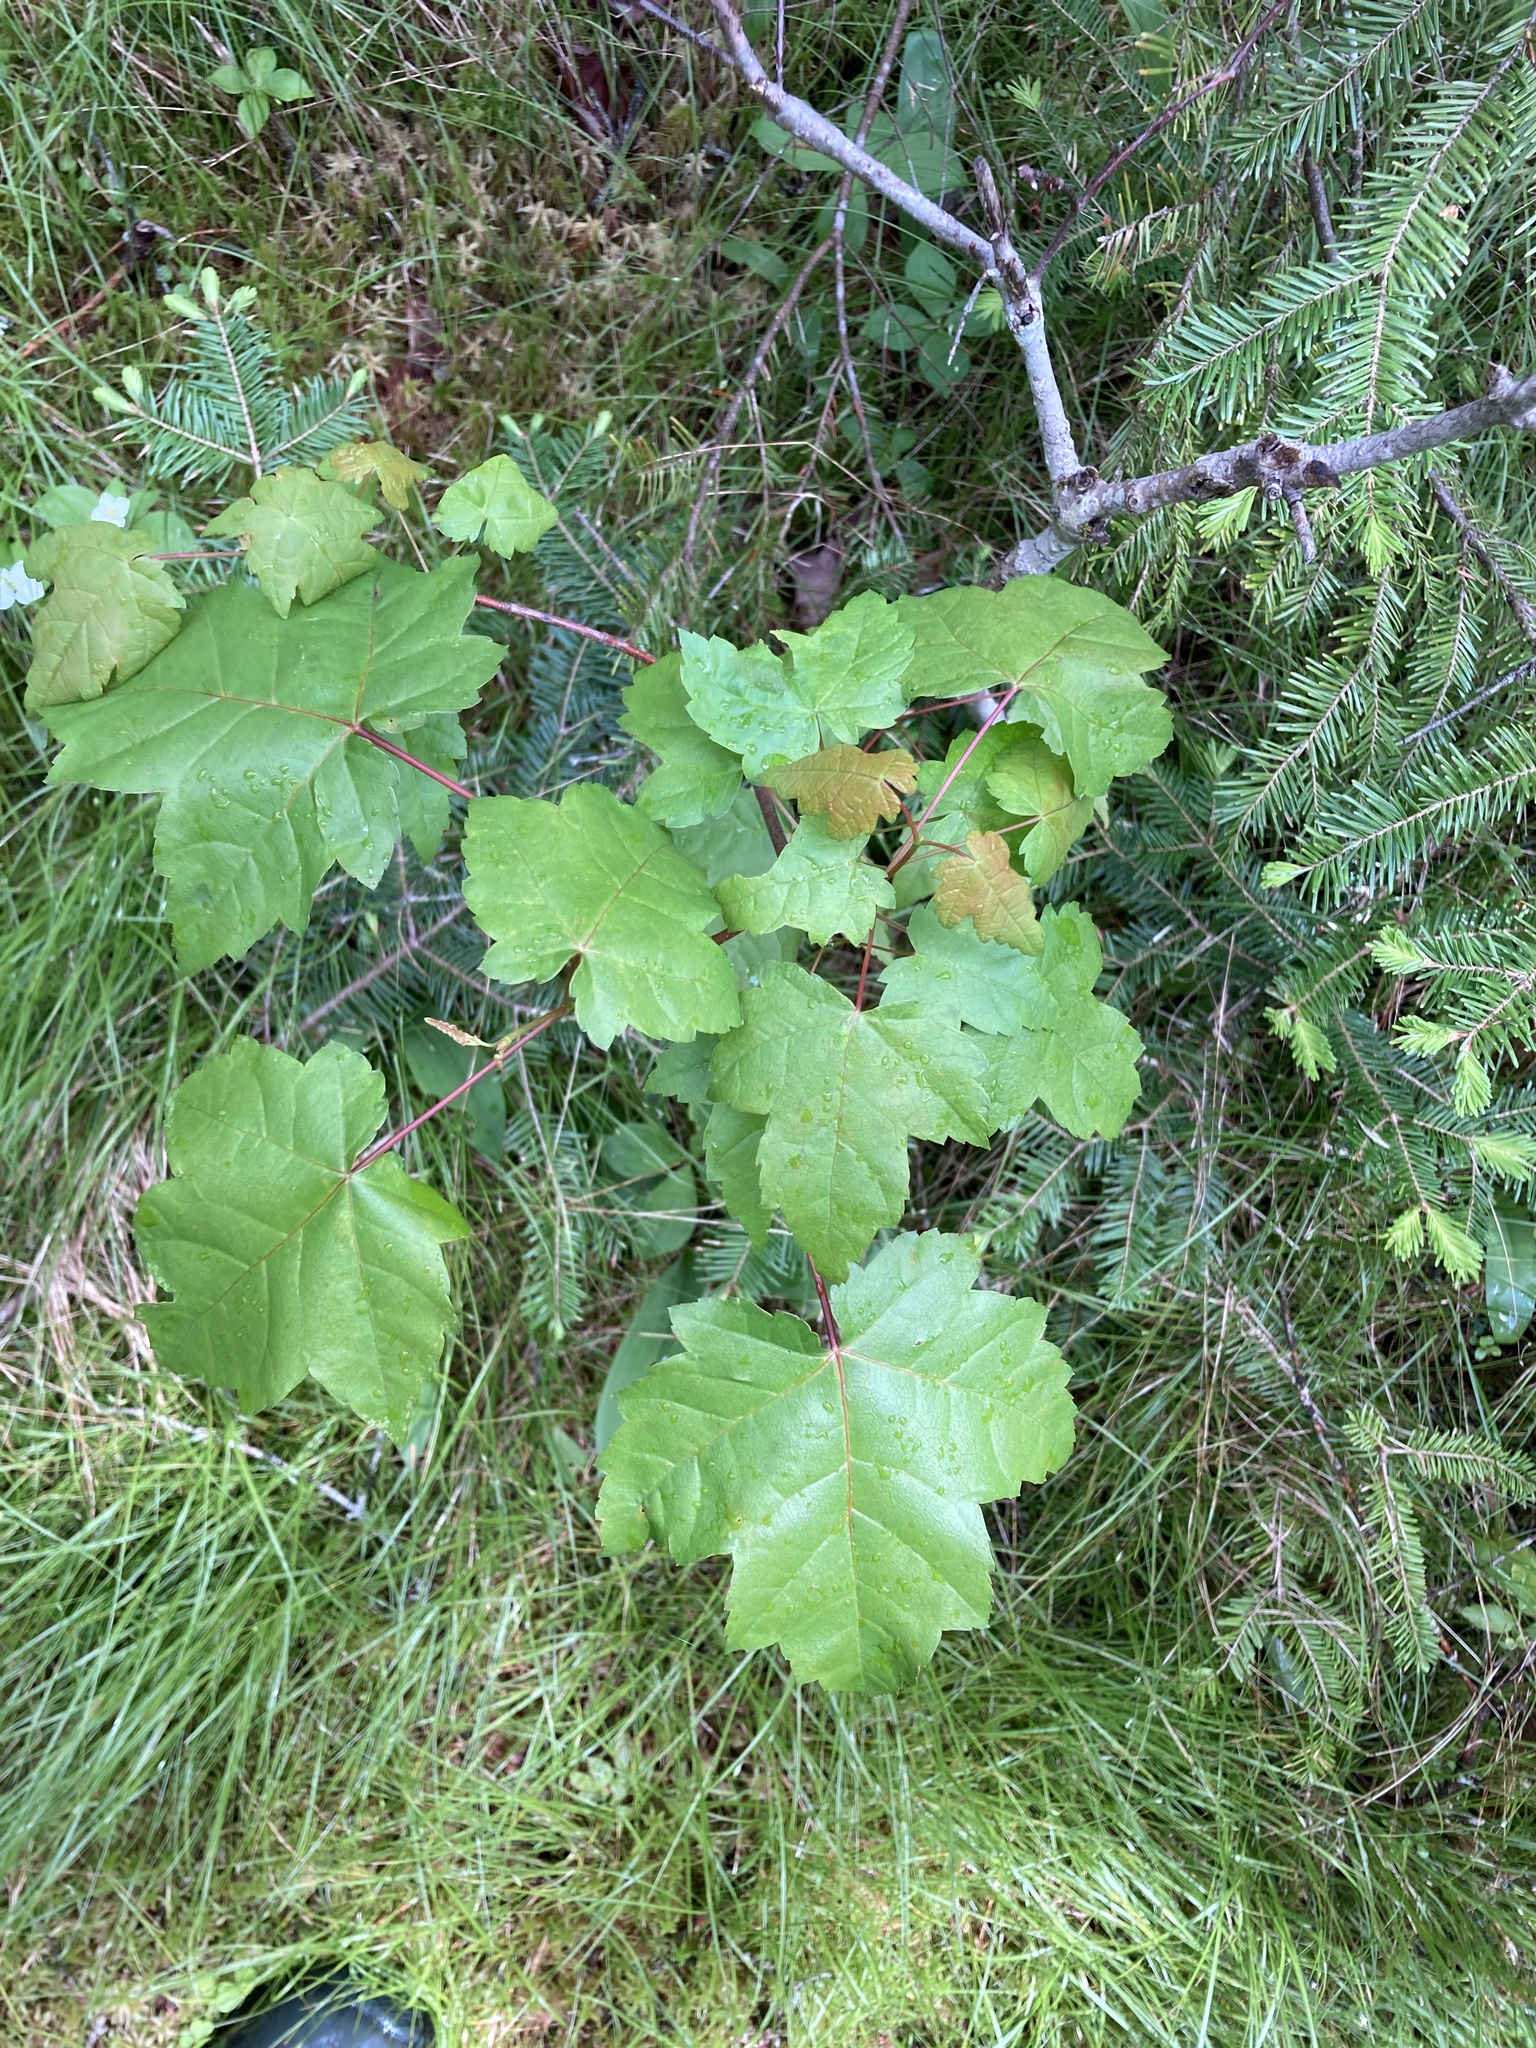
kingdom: Plantae
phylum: Tracheophyta
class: Magnoliopsida
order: Sapindales
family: Sapindaceae
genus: Acer
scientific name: Acer rubrum
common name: Red maple
